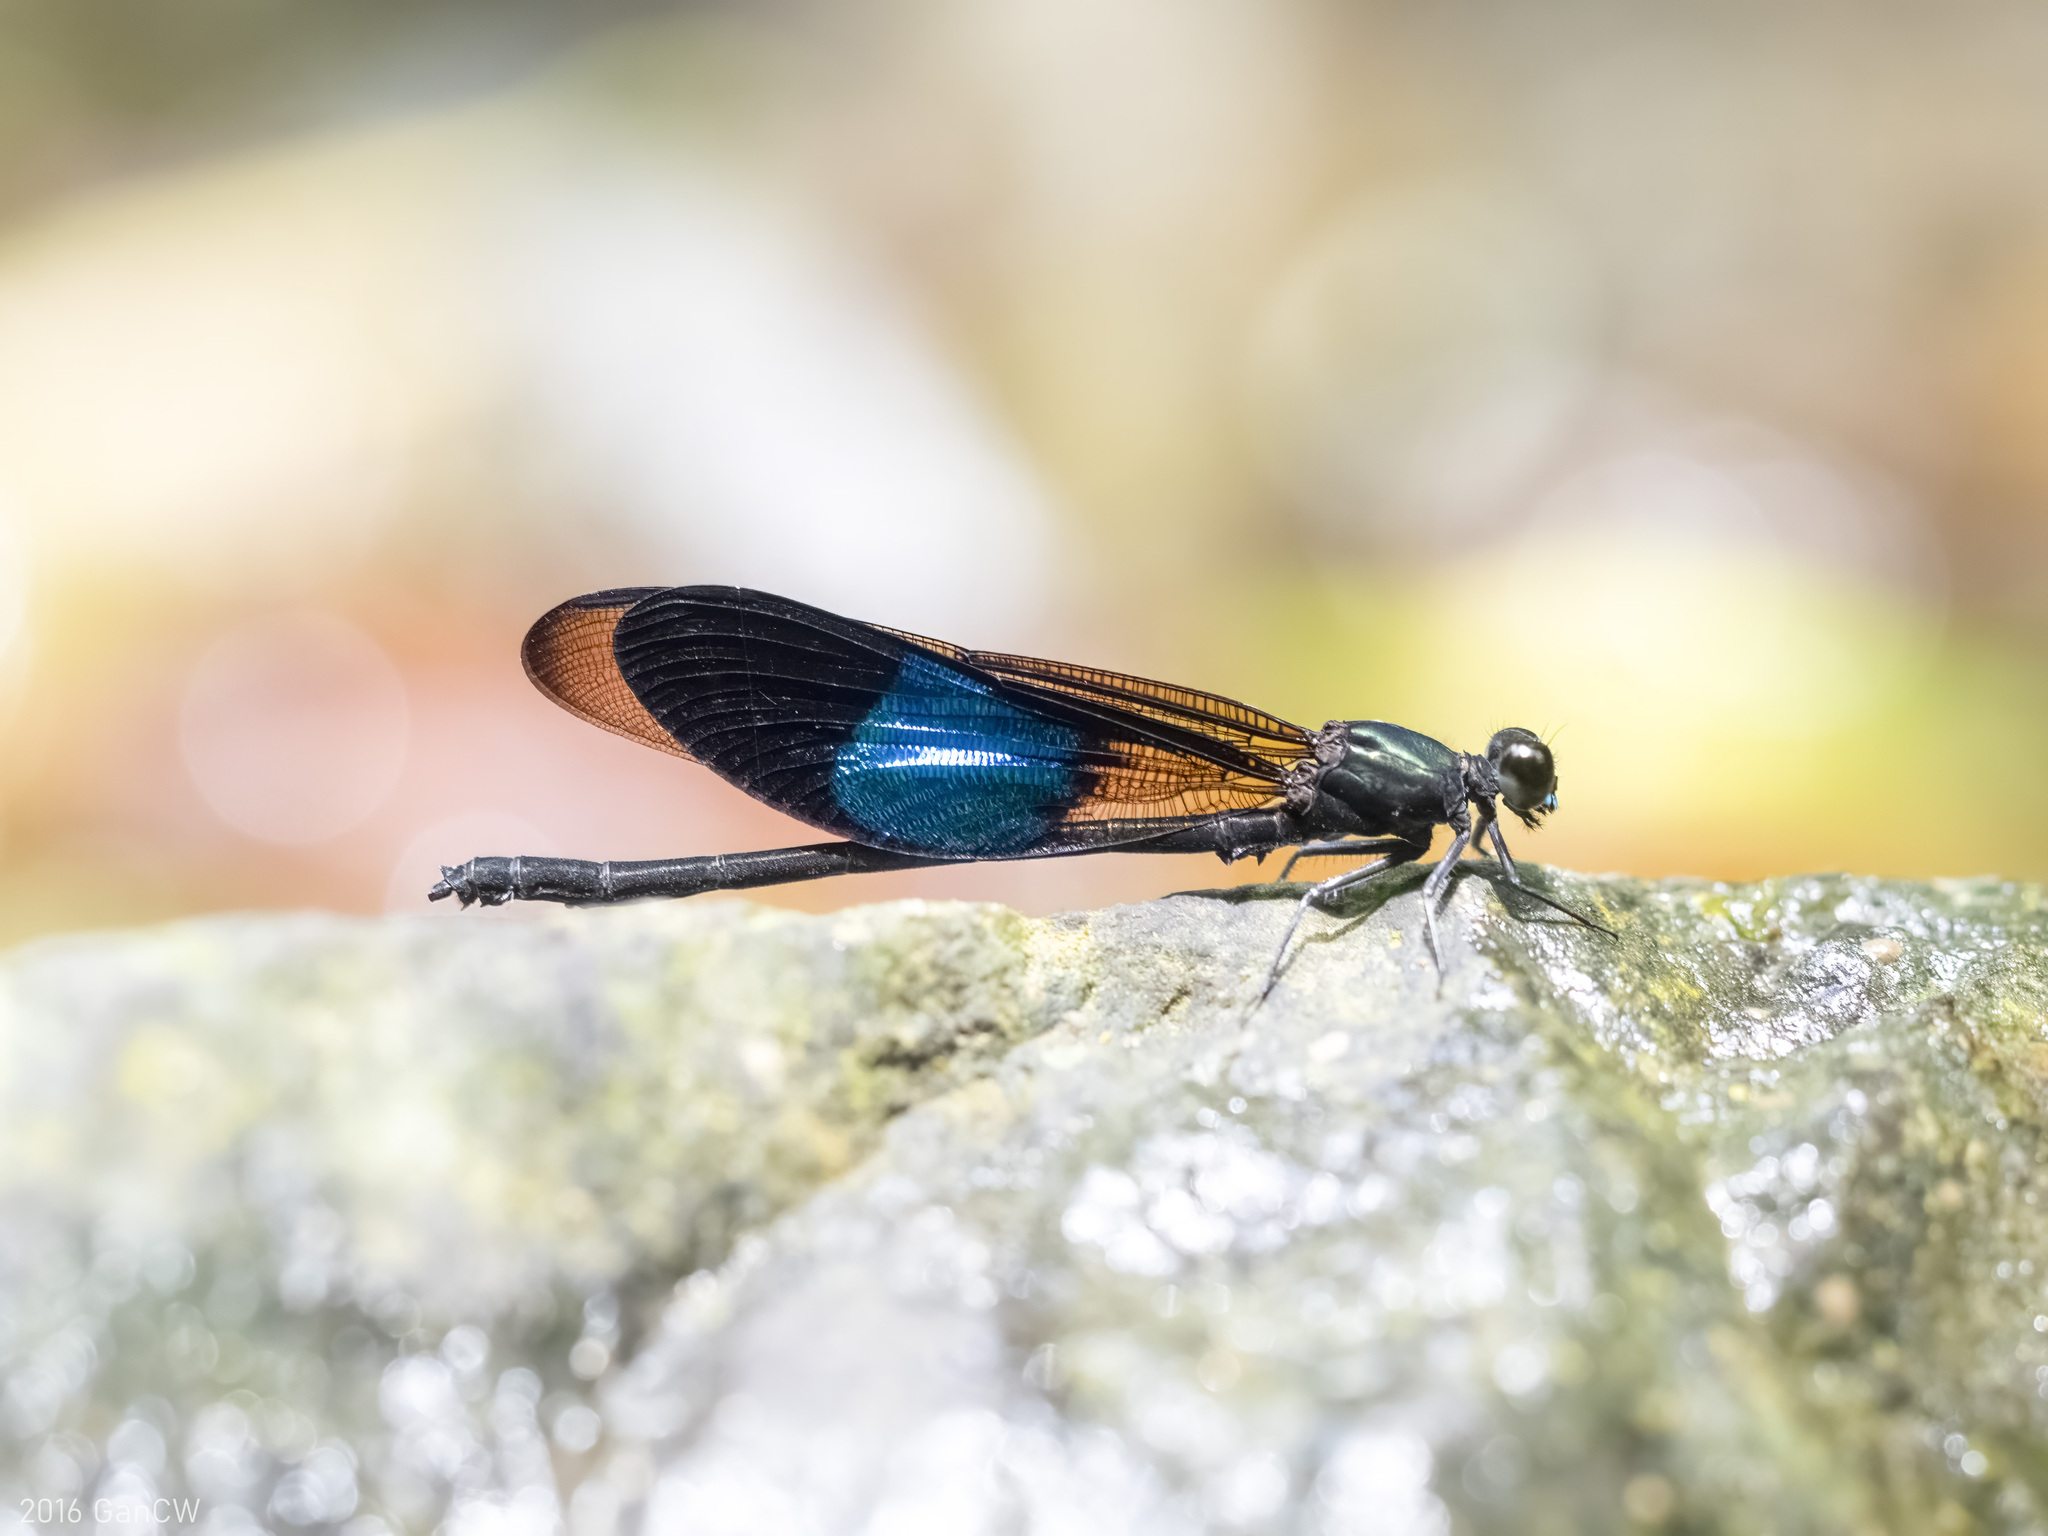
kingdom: Animalia
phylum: Arthropoda
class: Insecta
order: Odonata
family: Euphaeidae
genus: Euphaea
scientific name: Euphaea subcostalis
